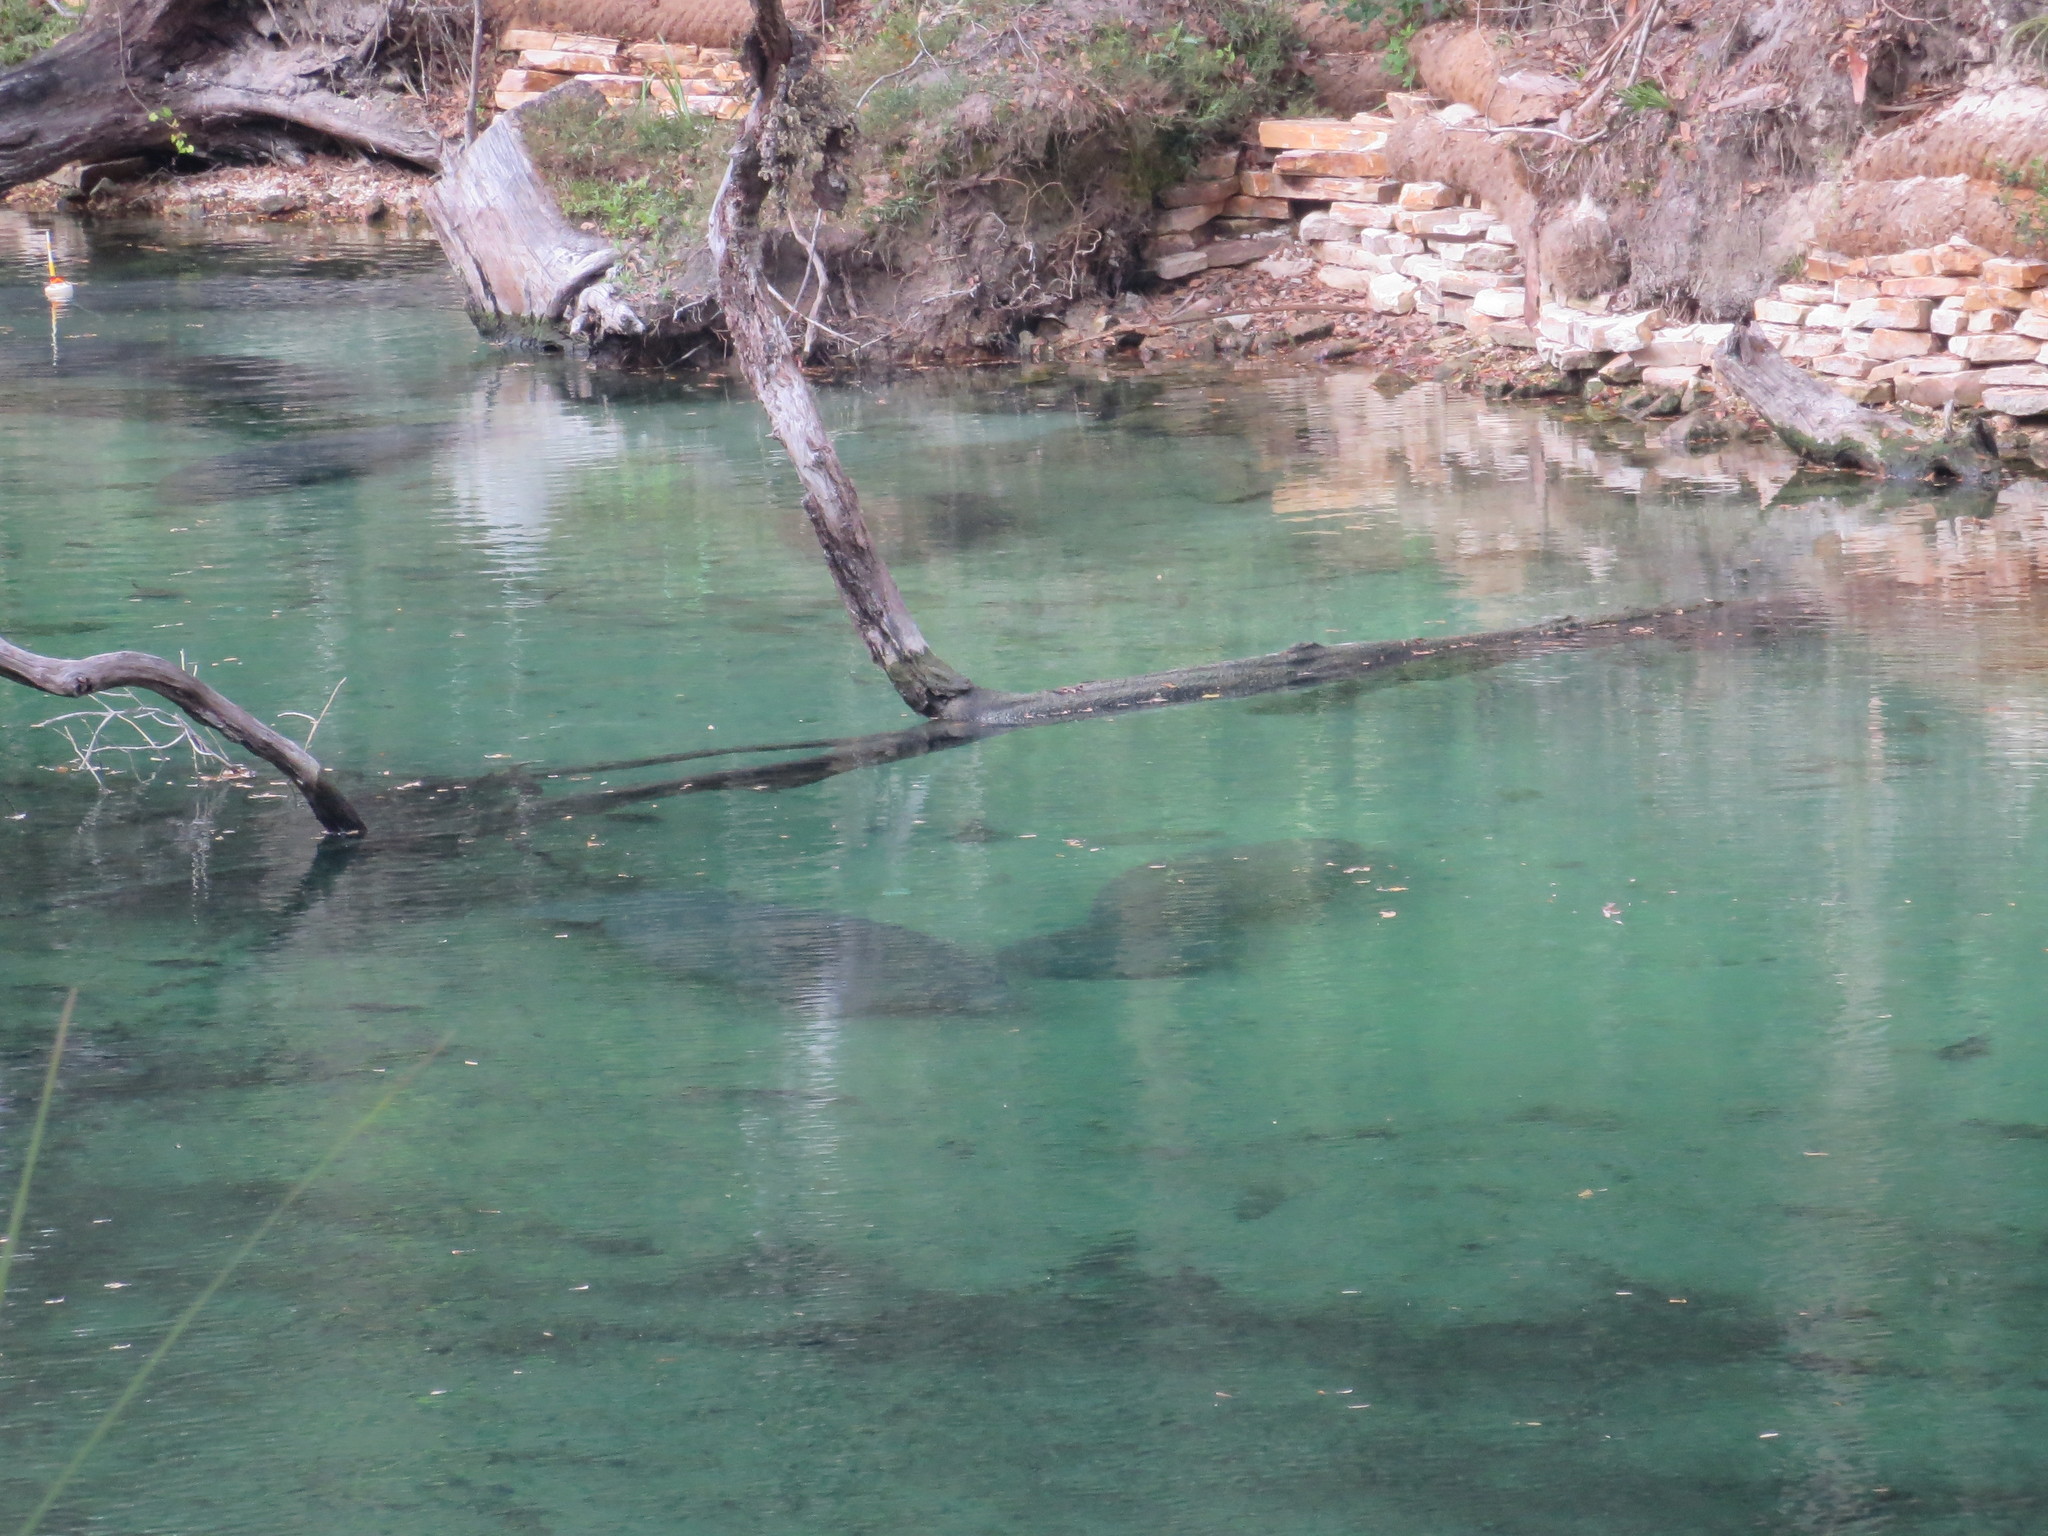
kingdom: Animalia
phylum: Chordata
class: Mammalia
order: Sirenia
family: Trichechidae
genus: Trichechus
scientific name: Trichechus manatus
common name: West indian manatee
